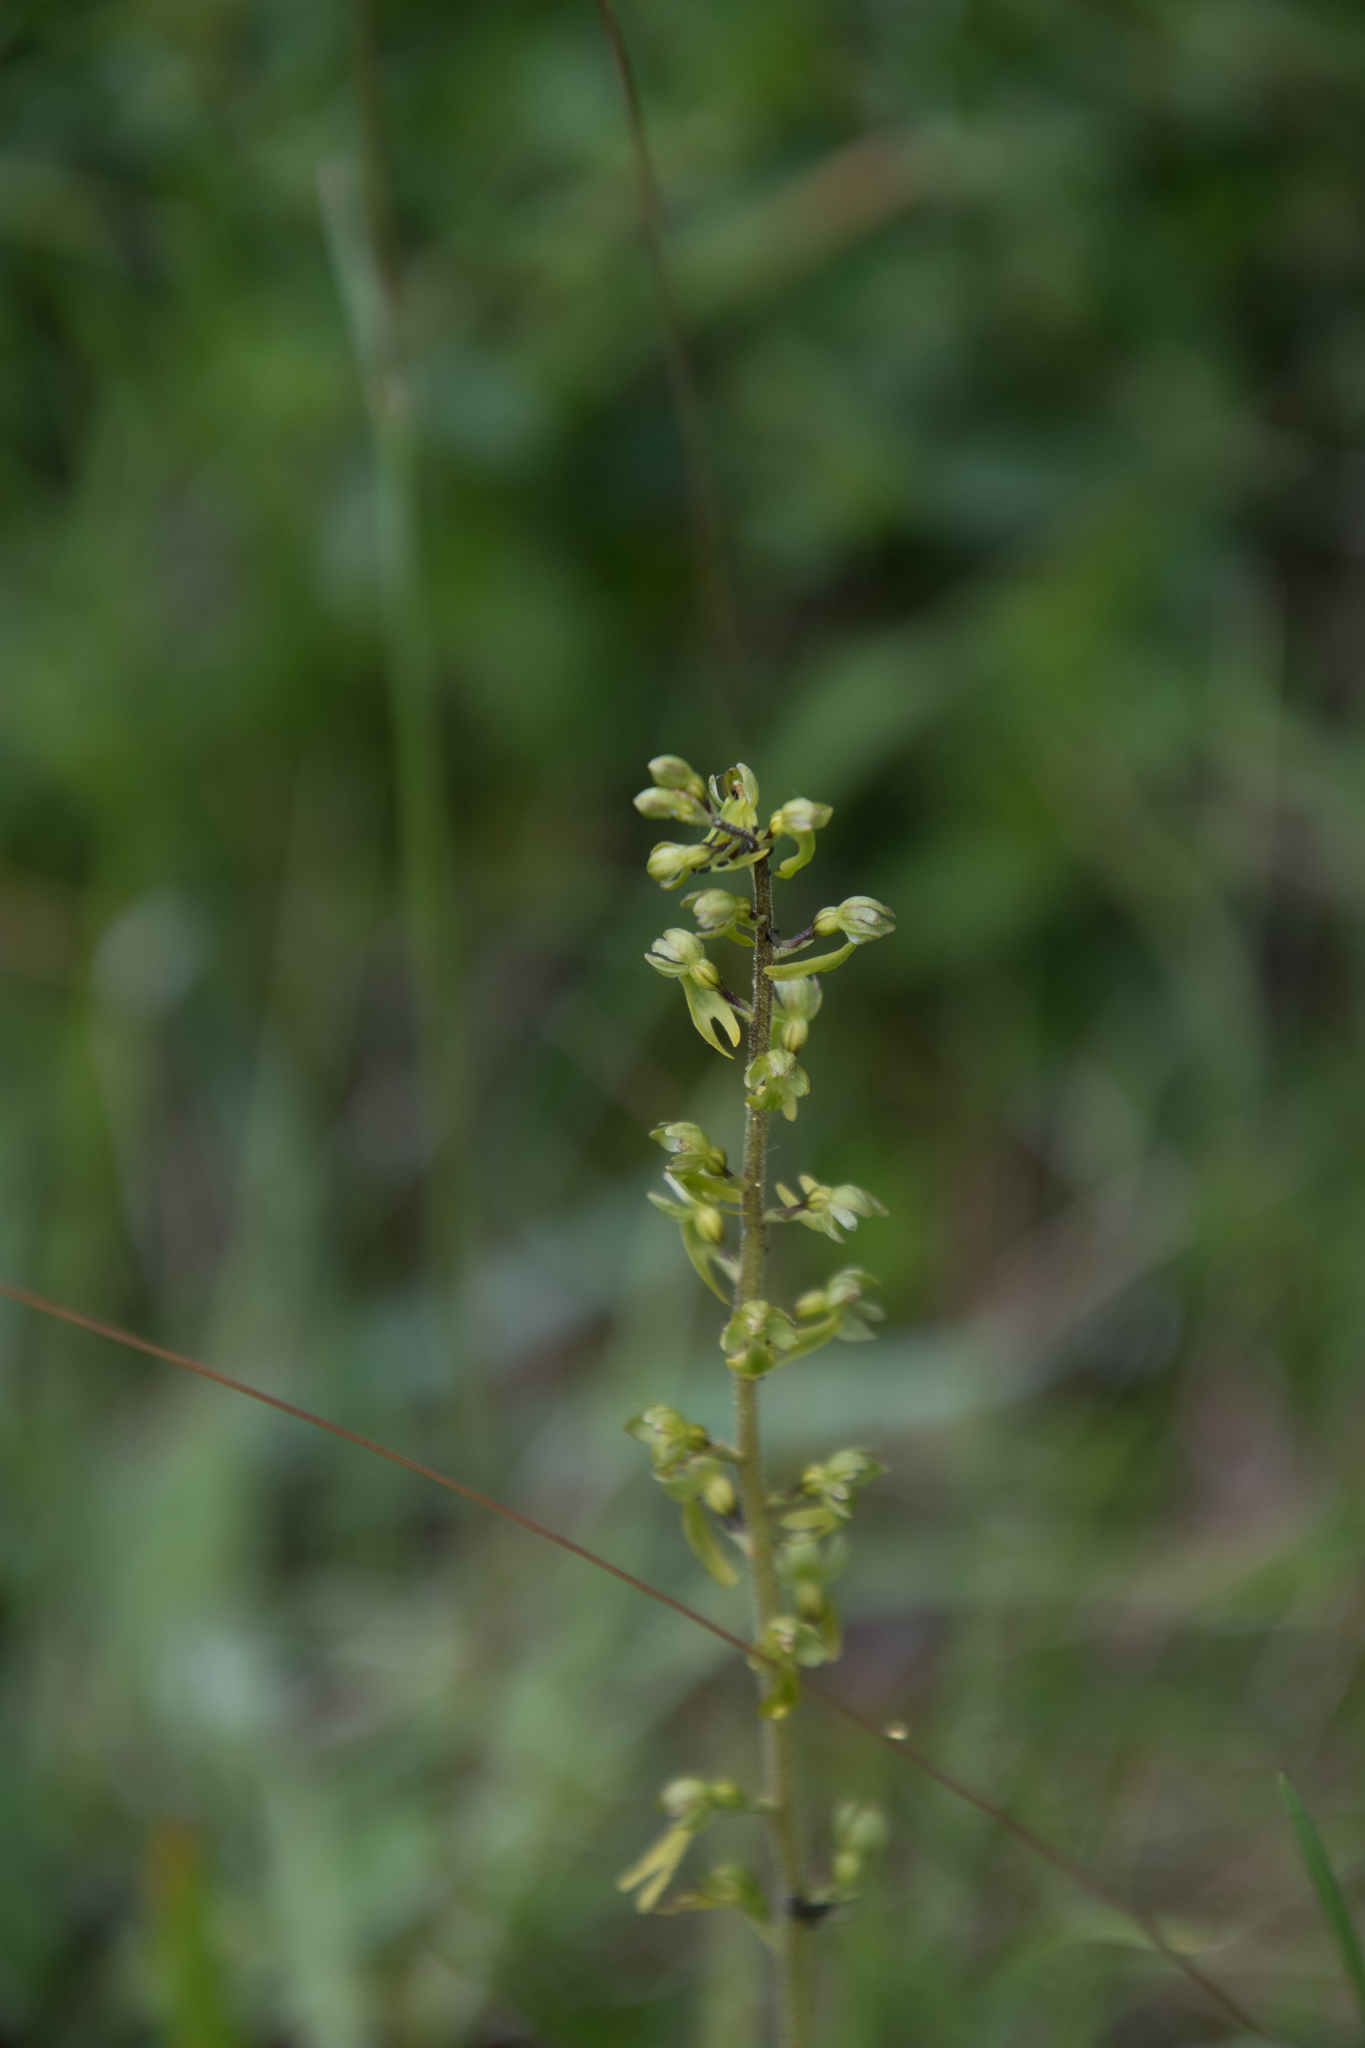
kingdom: Plantae
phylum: Tracheophyta
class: Liliopsida
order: Asparagales
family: Orchidaceae
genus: Neottia
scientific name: Neottia ovata
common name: Common twayblade
